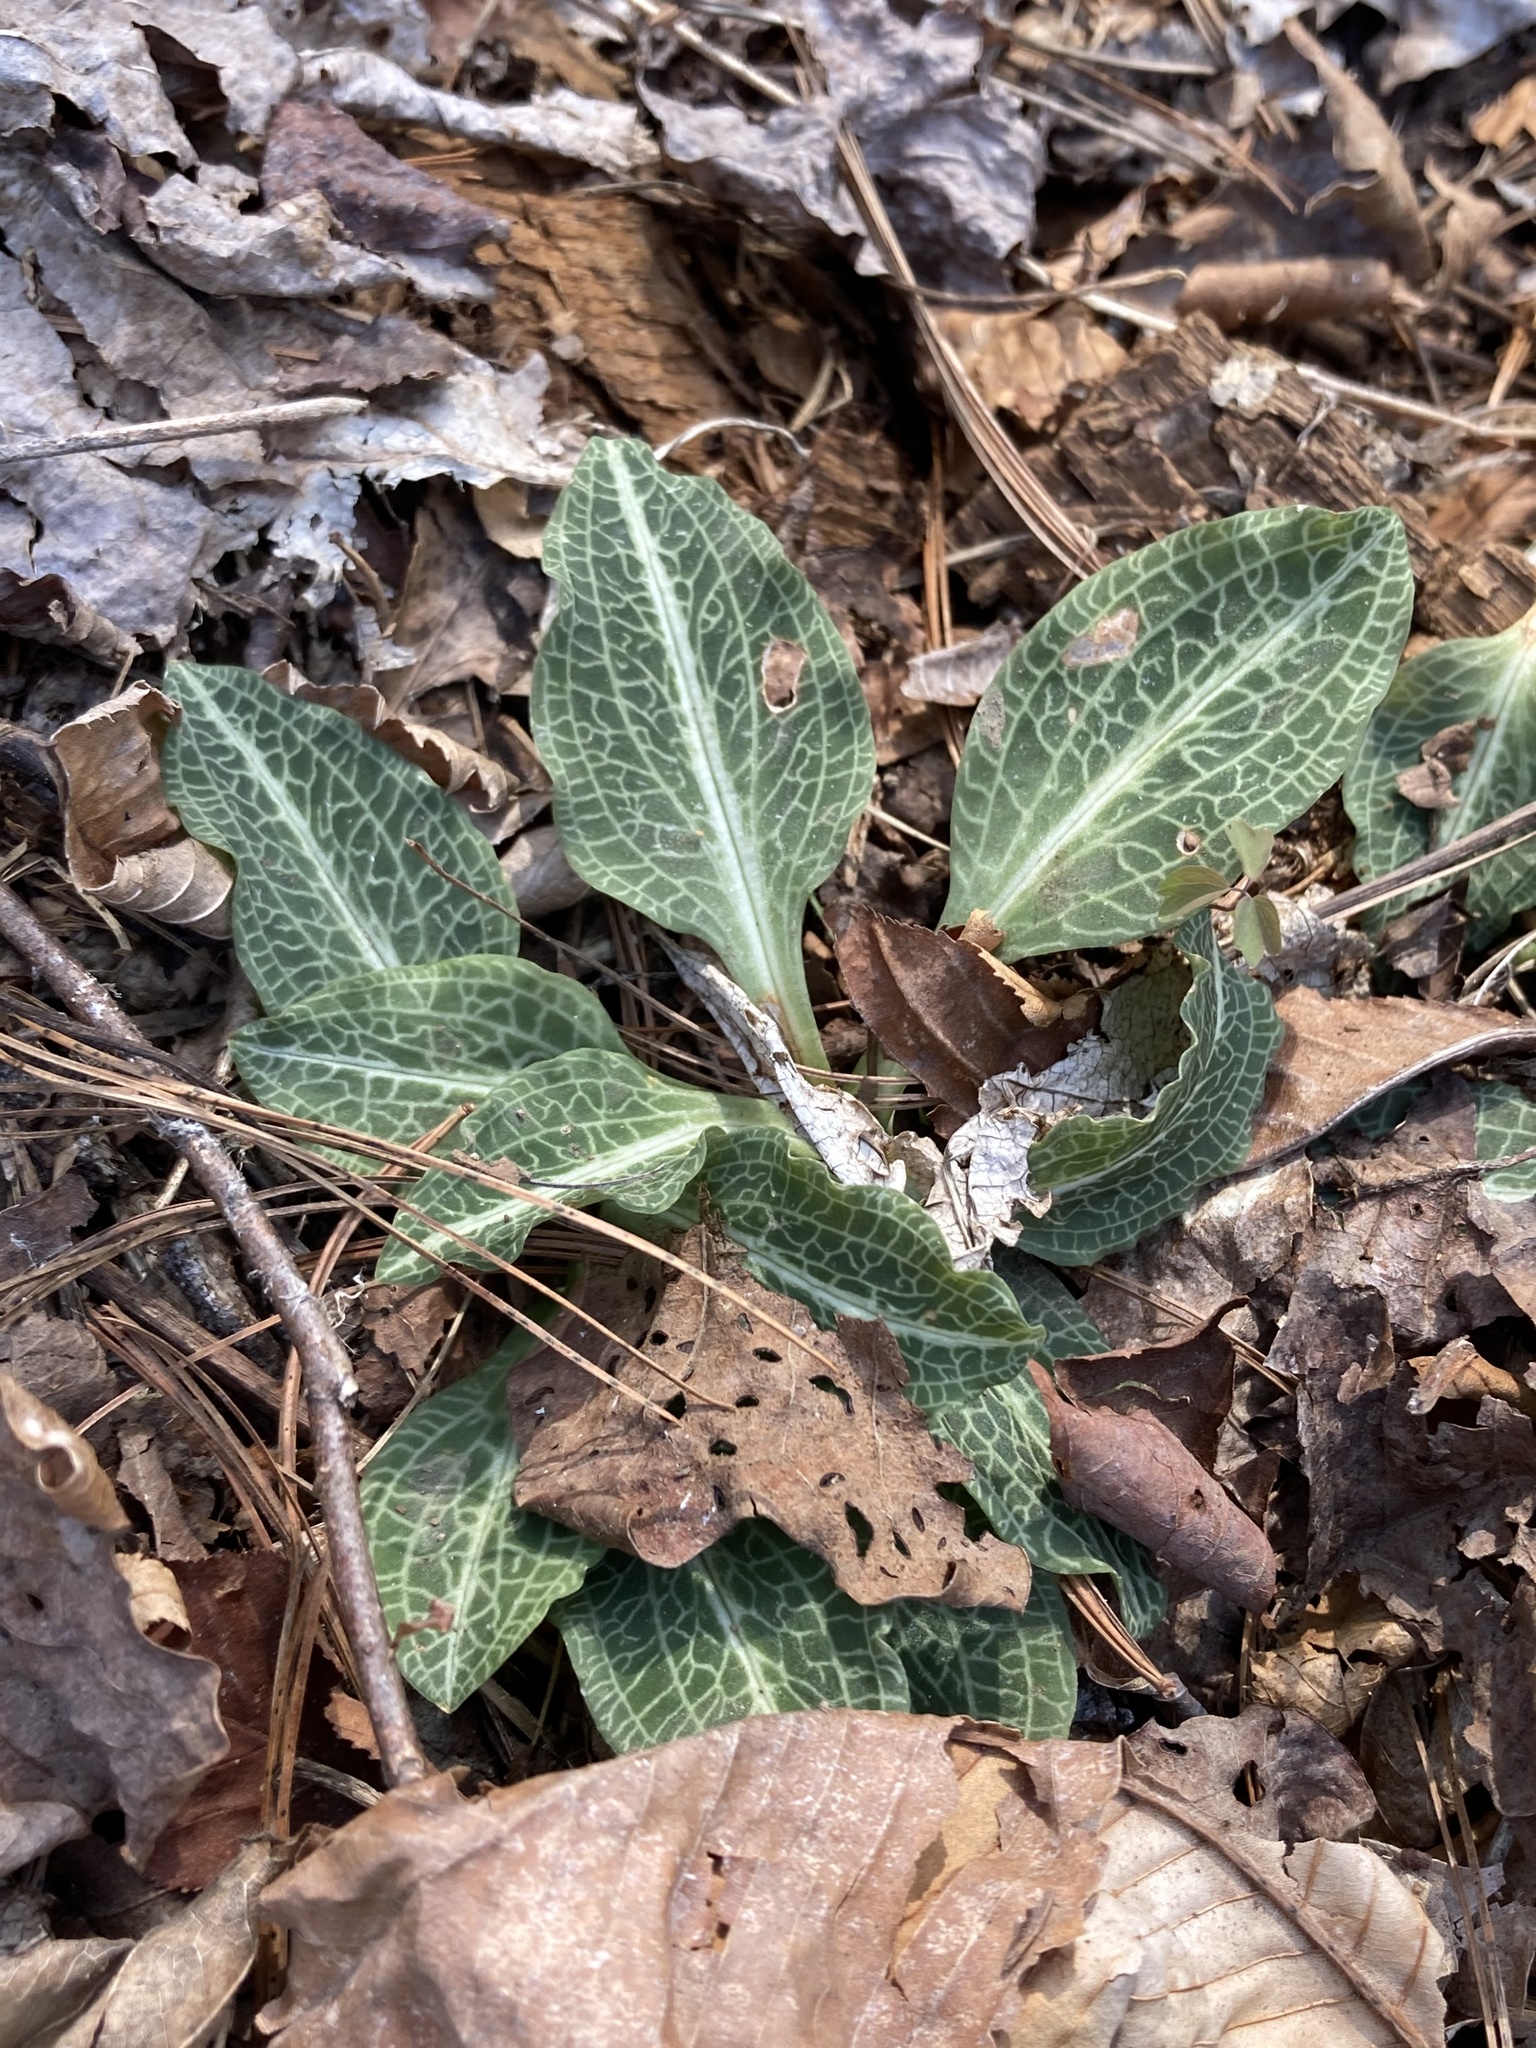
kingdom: Plantae
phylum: Tracheophyta
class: Liliopsida
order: Asparagales
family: Orchidaceae
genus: Goodyera
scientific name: Goodyera pubescens
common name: Downy rattlesnake-plantain
